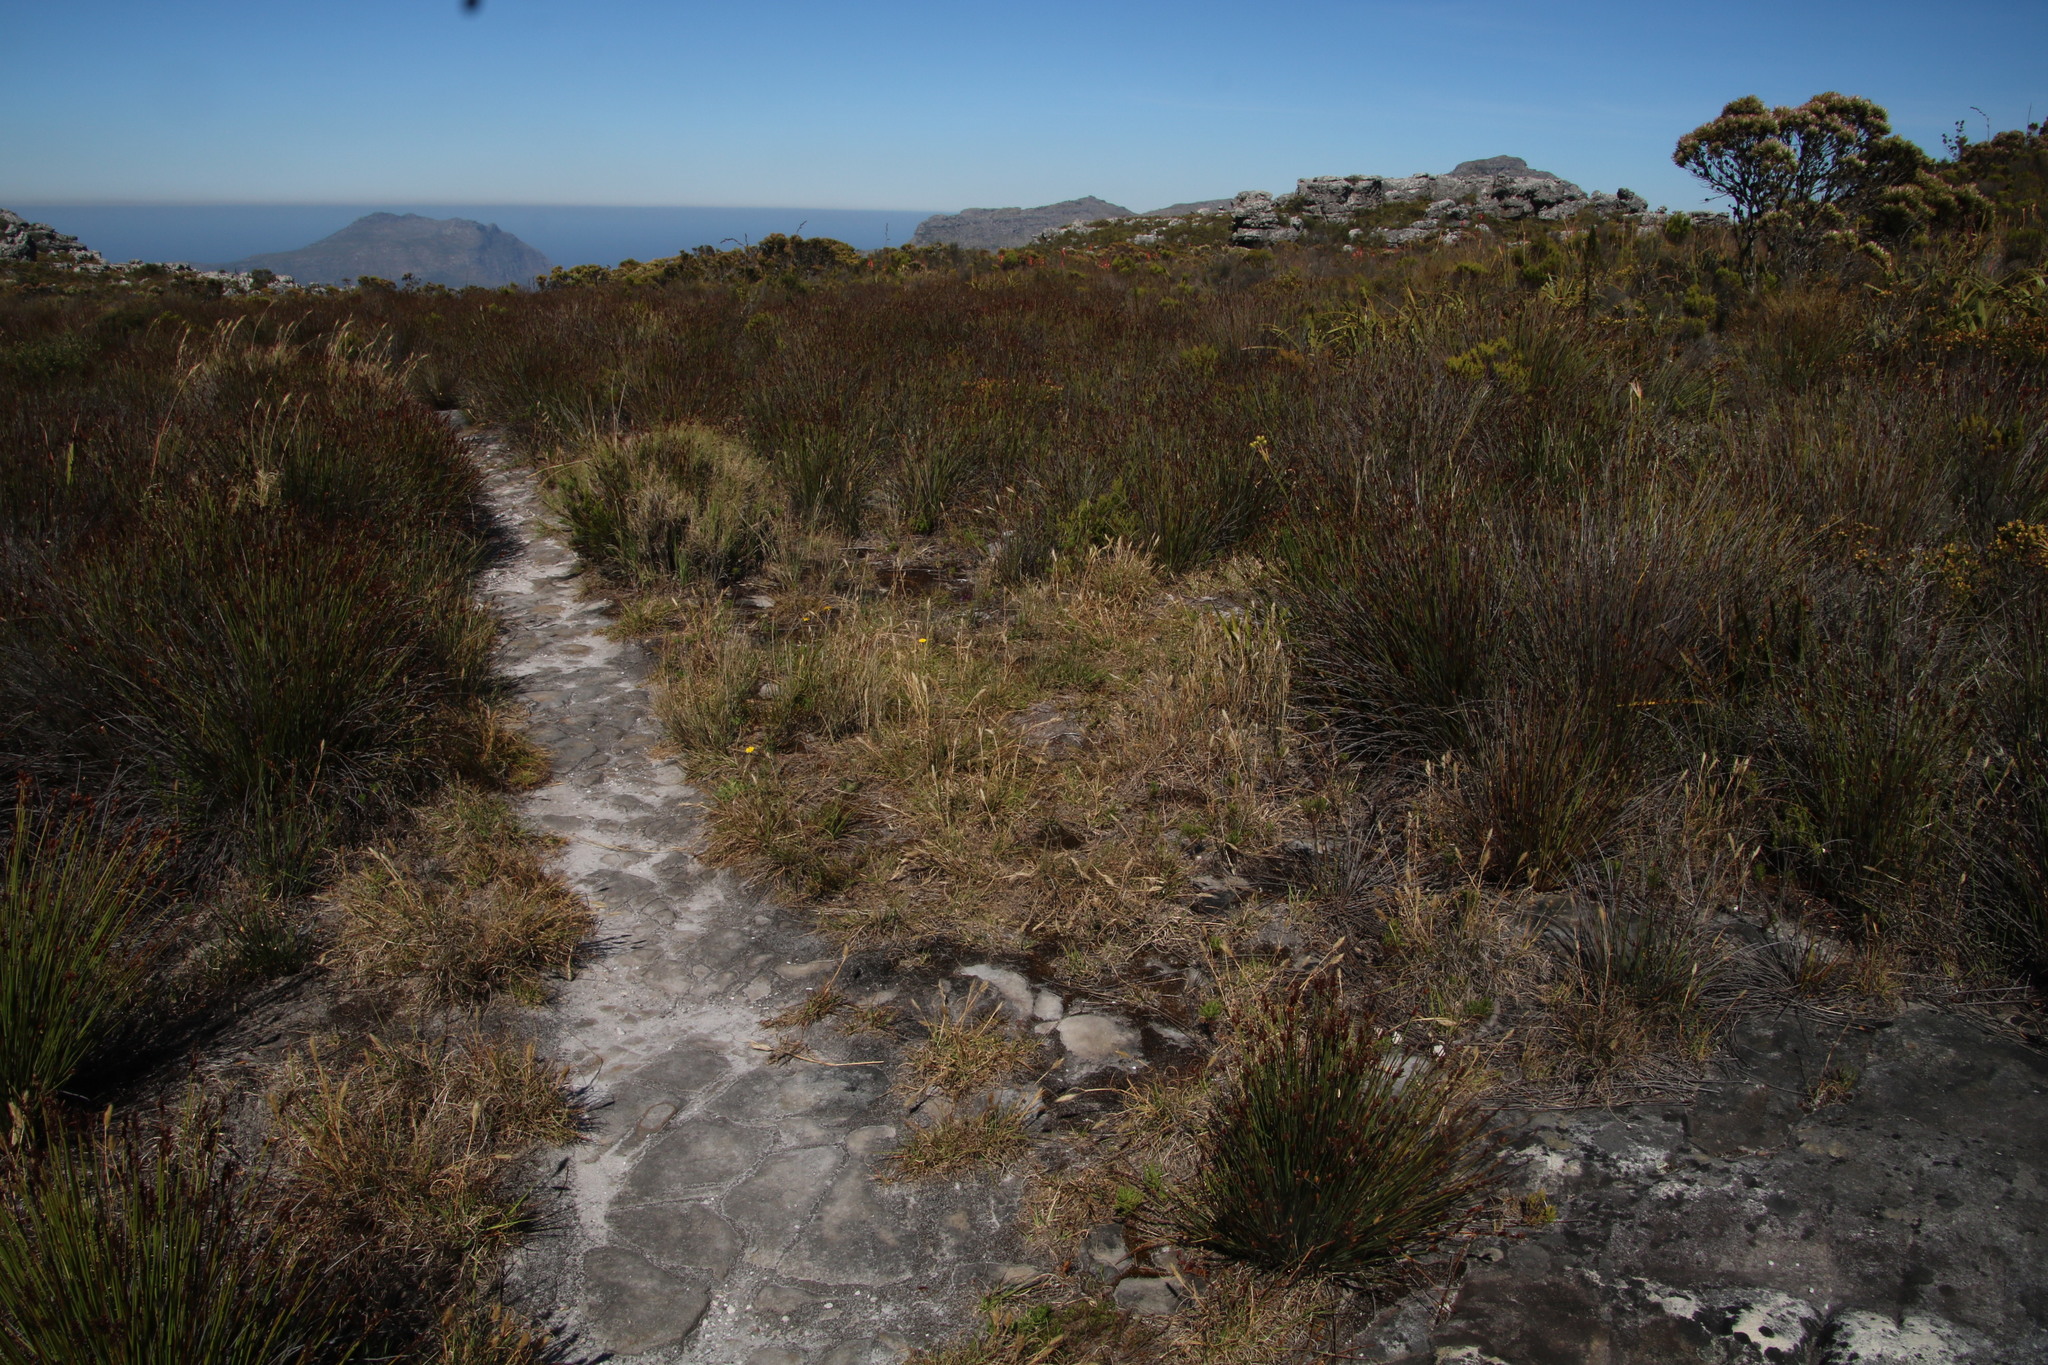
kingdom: Plantae
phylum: Tracheophyta
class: Magnoliopsida
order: Asterales
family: Asteraceae
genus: Hypochaeris
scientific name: Hypochaeris radicata
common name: Flatweed
